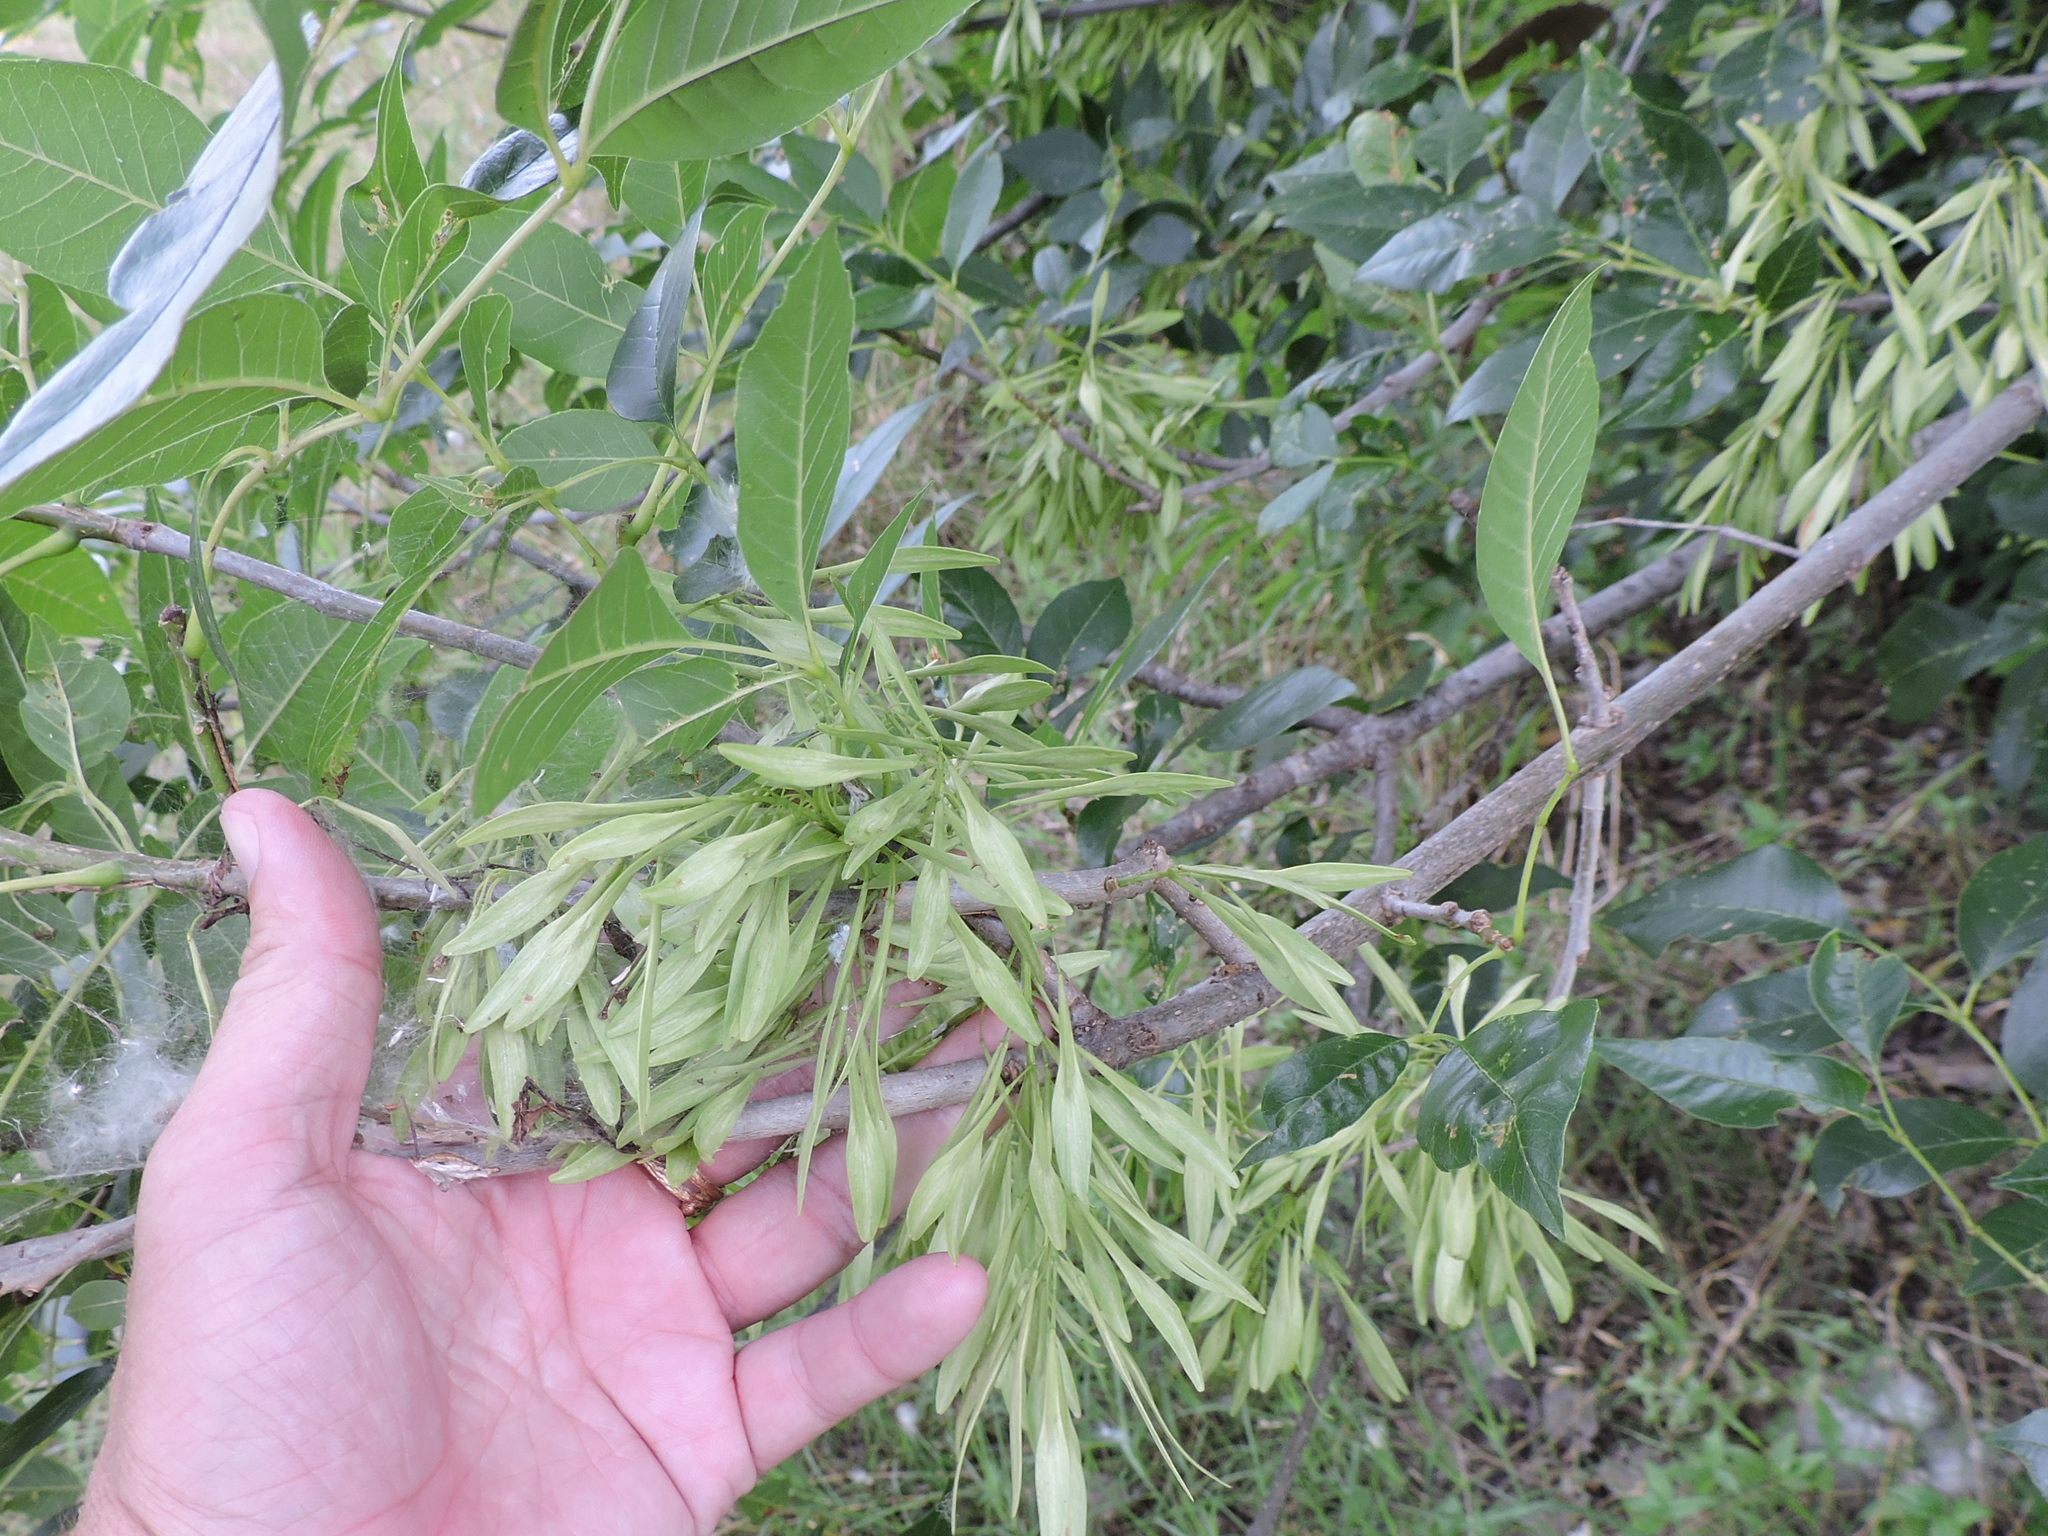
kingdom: Plantae
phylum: Tracheophyta
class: Magnoliopsida
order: Lamiales
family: Oleaceae
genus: Fraxinus
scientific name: Fraxinus pennsylvanica
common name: Green ash
